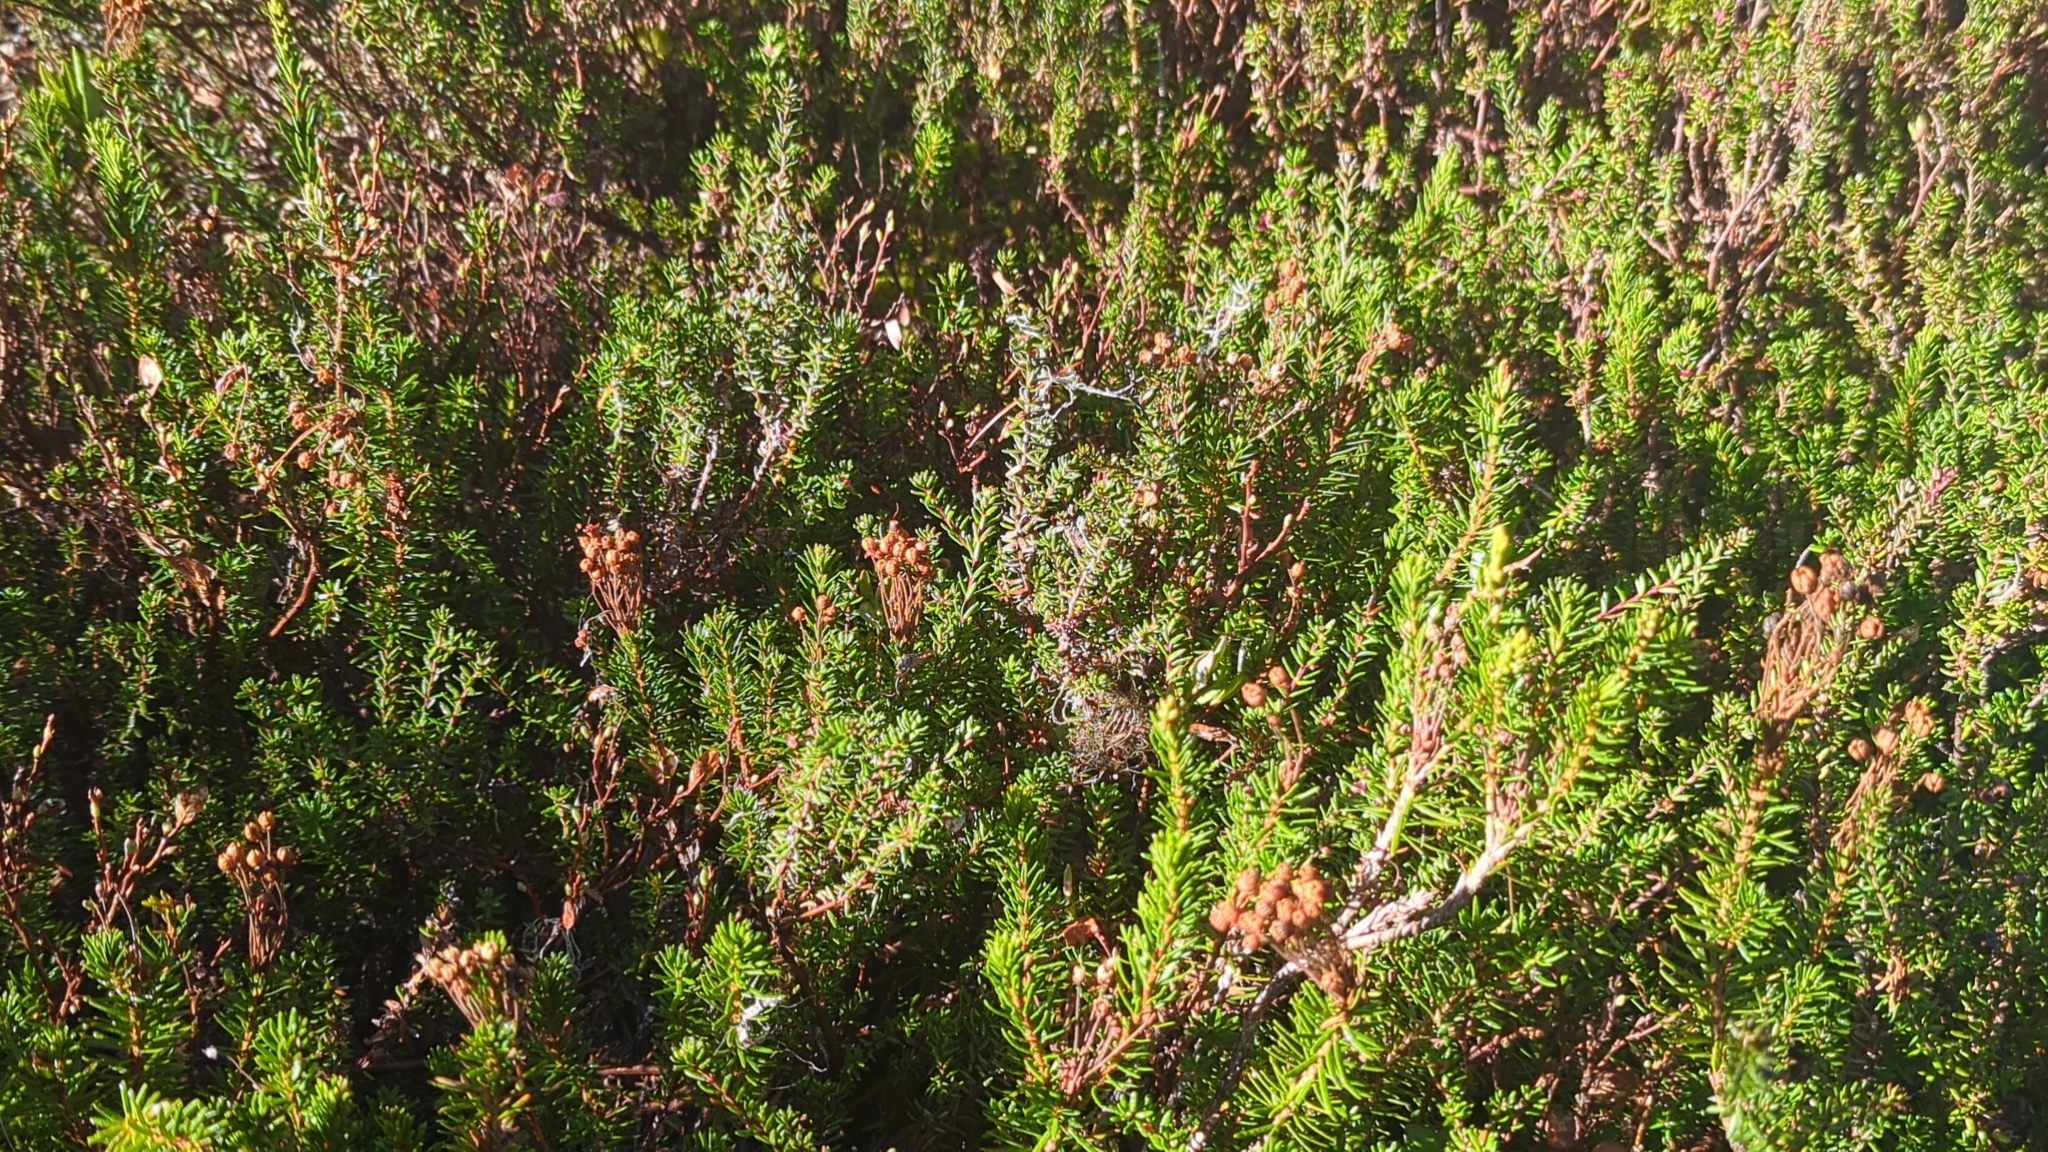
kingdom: Plantae
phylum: Tracheophyta
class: Magnoliopsida
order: Ericales
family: Ericaceae
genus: Phyllodoce
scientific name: Phyllodoce empetriformis
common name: Pink mountain heather
